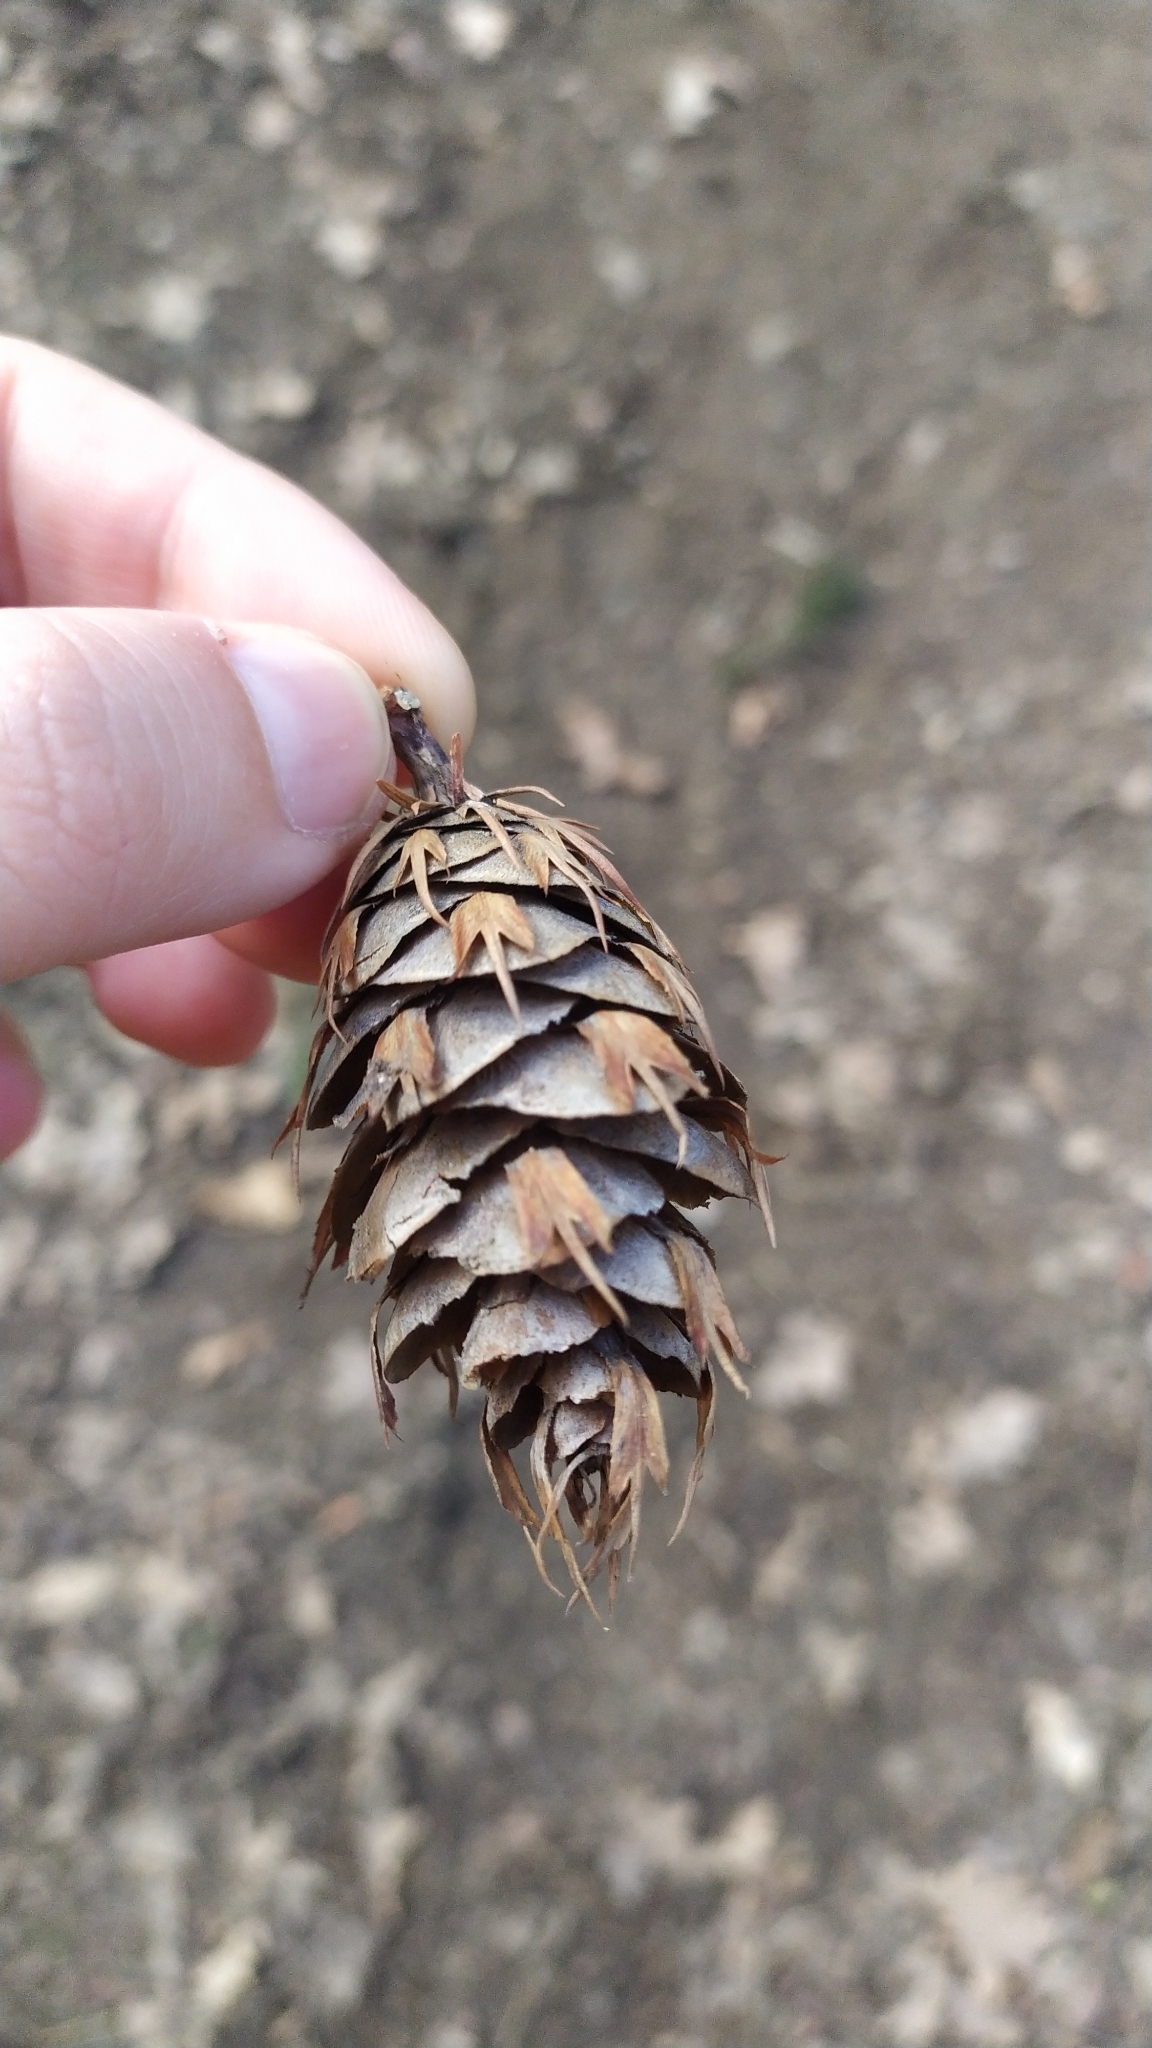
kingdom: Plantae
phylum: Tracheophyta
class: Pinopsida
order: Pinales
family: Pinaceae
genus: Pseudotsuga
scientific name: Pseudotsuga menziesii
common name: Douglas fir
